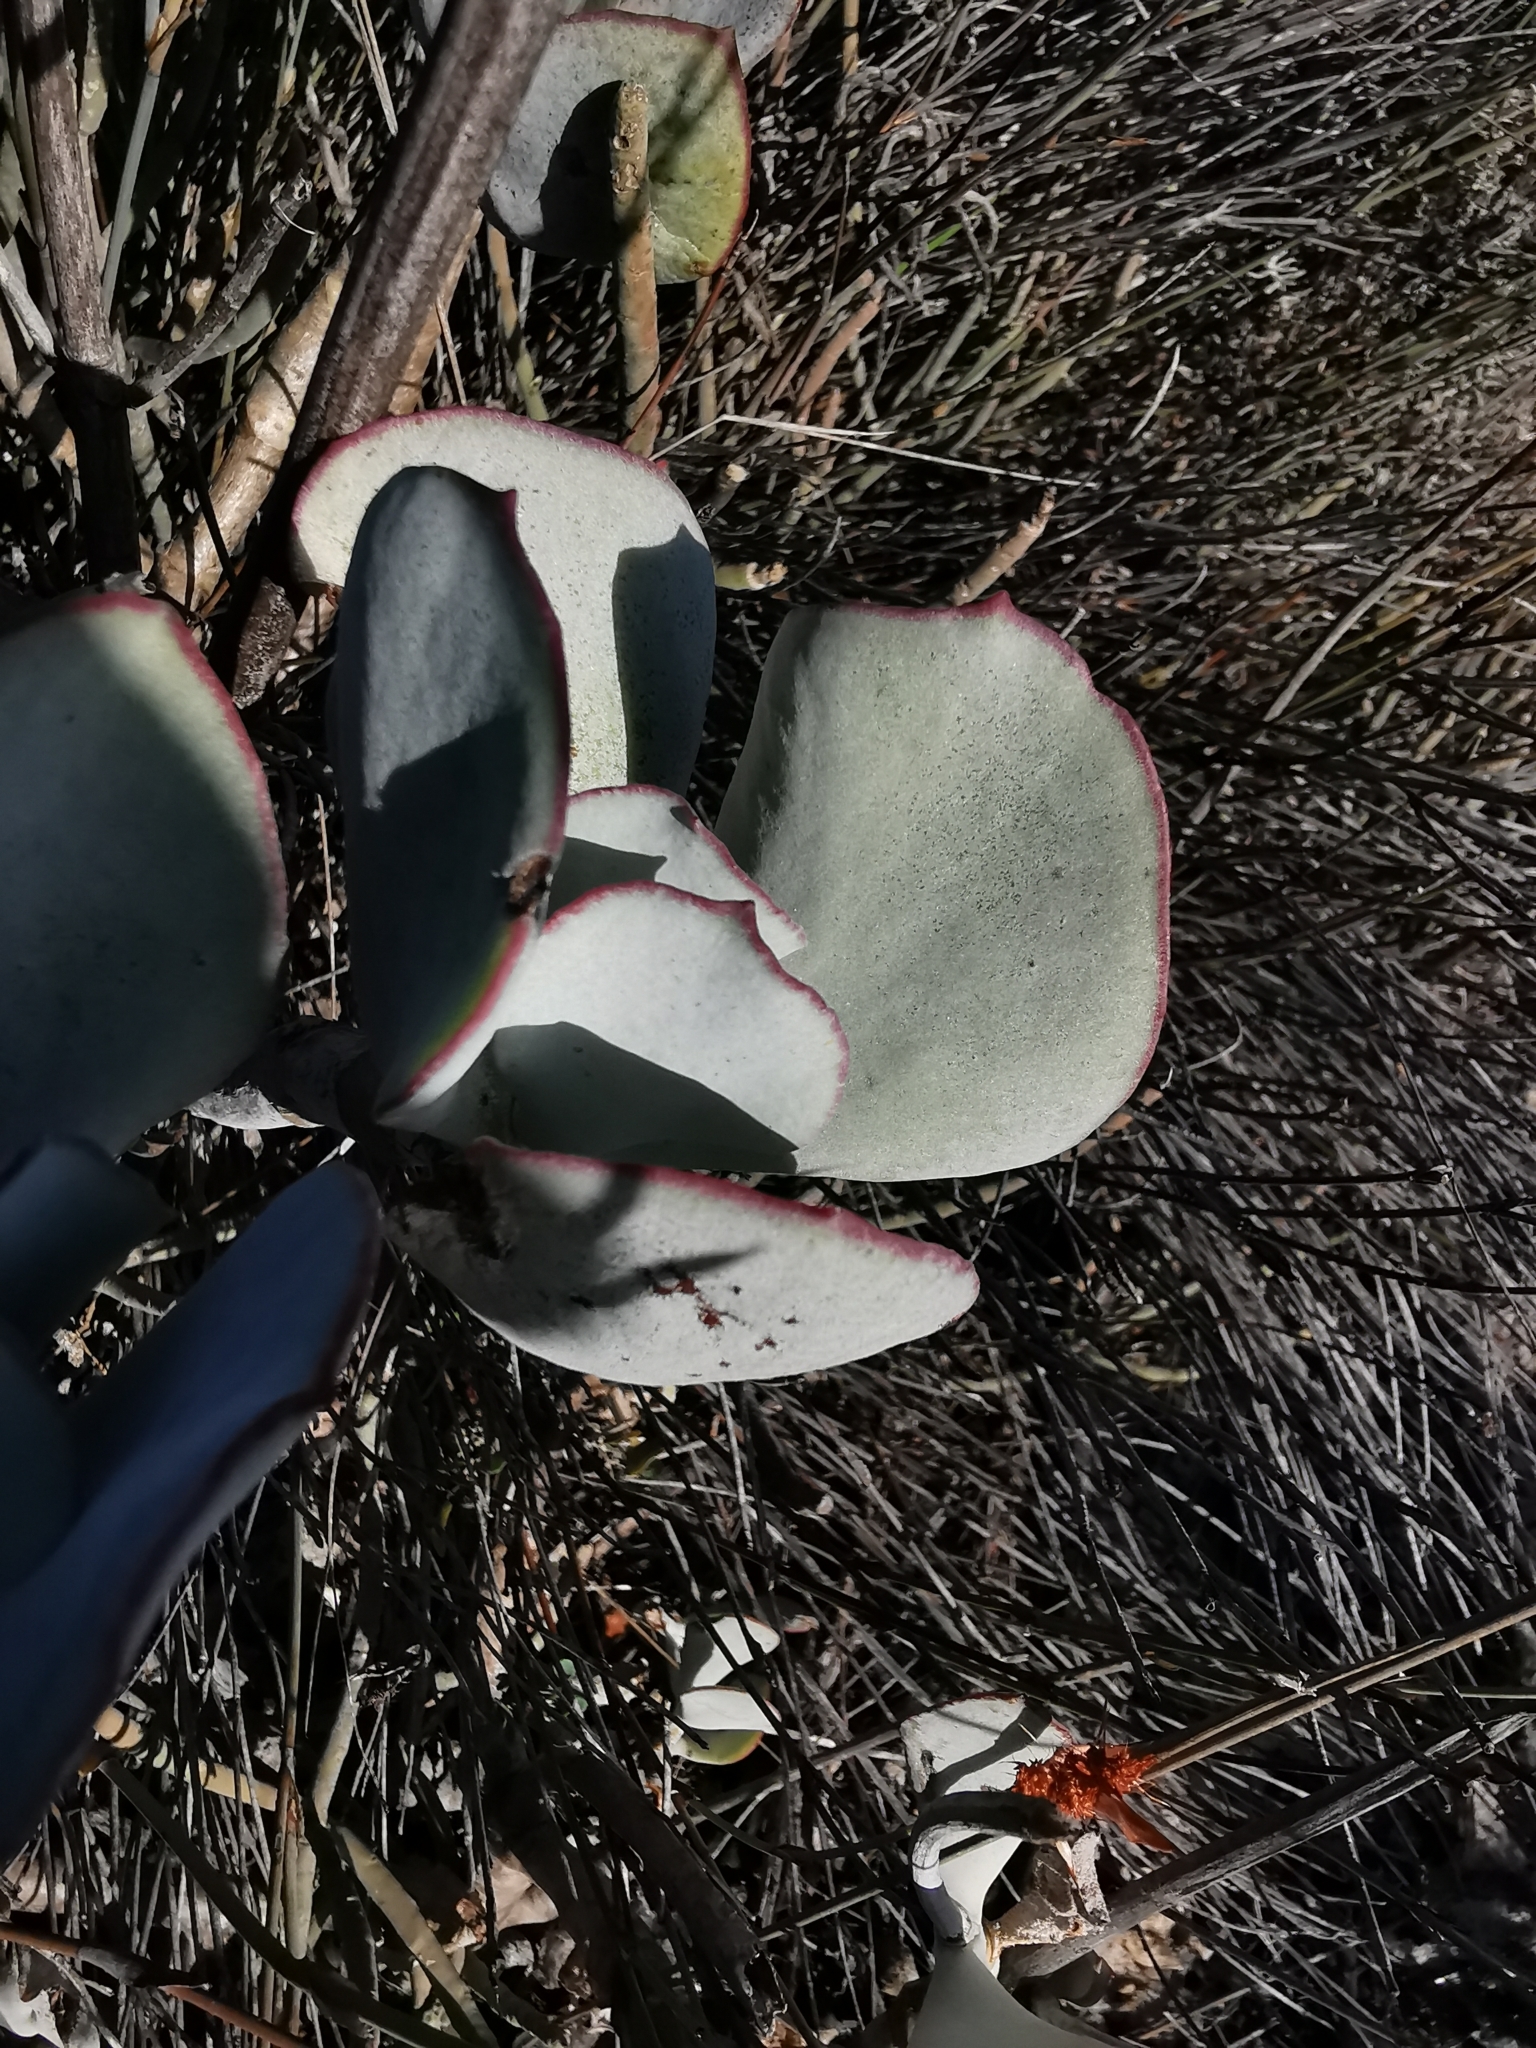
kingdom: Plantae
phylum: Tracheophyta
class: Magnoliopsida
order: Saxifragales
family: Crassulaceae
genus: Cotyledon
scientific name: Cotyledon orbiculata
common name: Pig's ear
